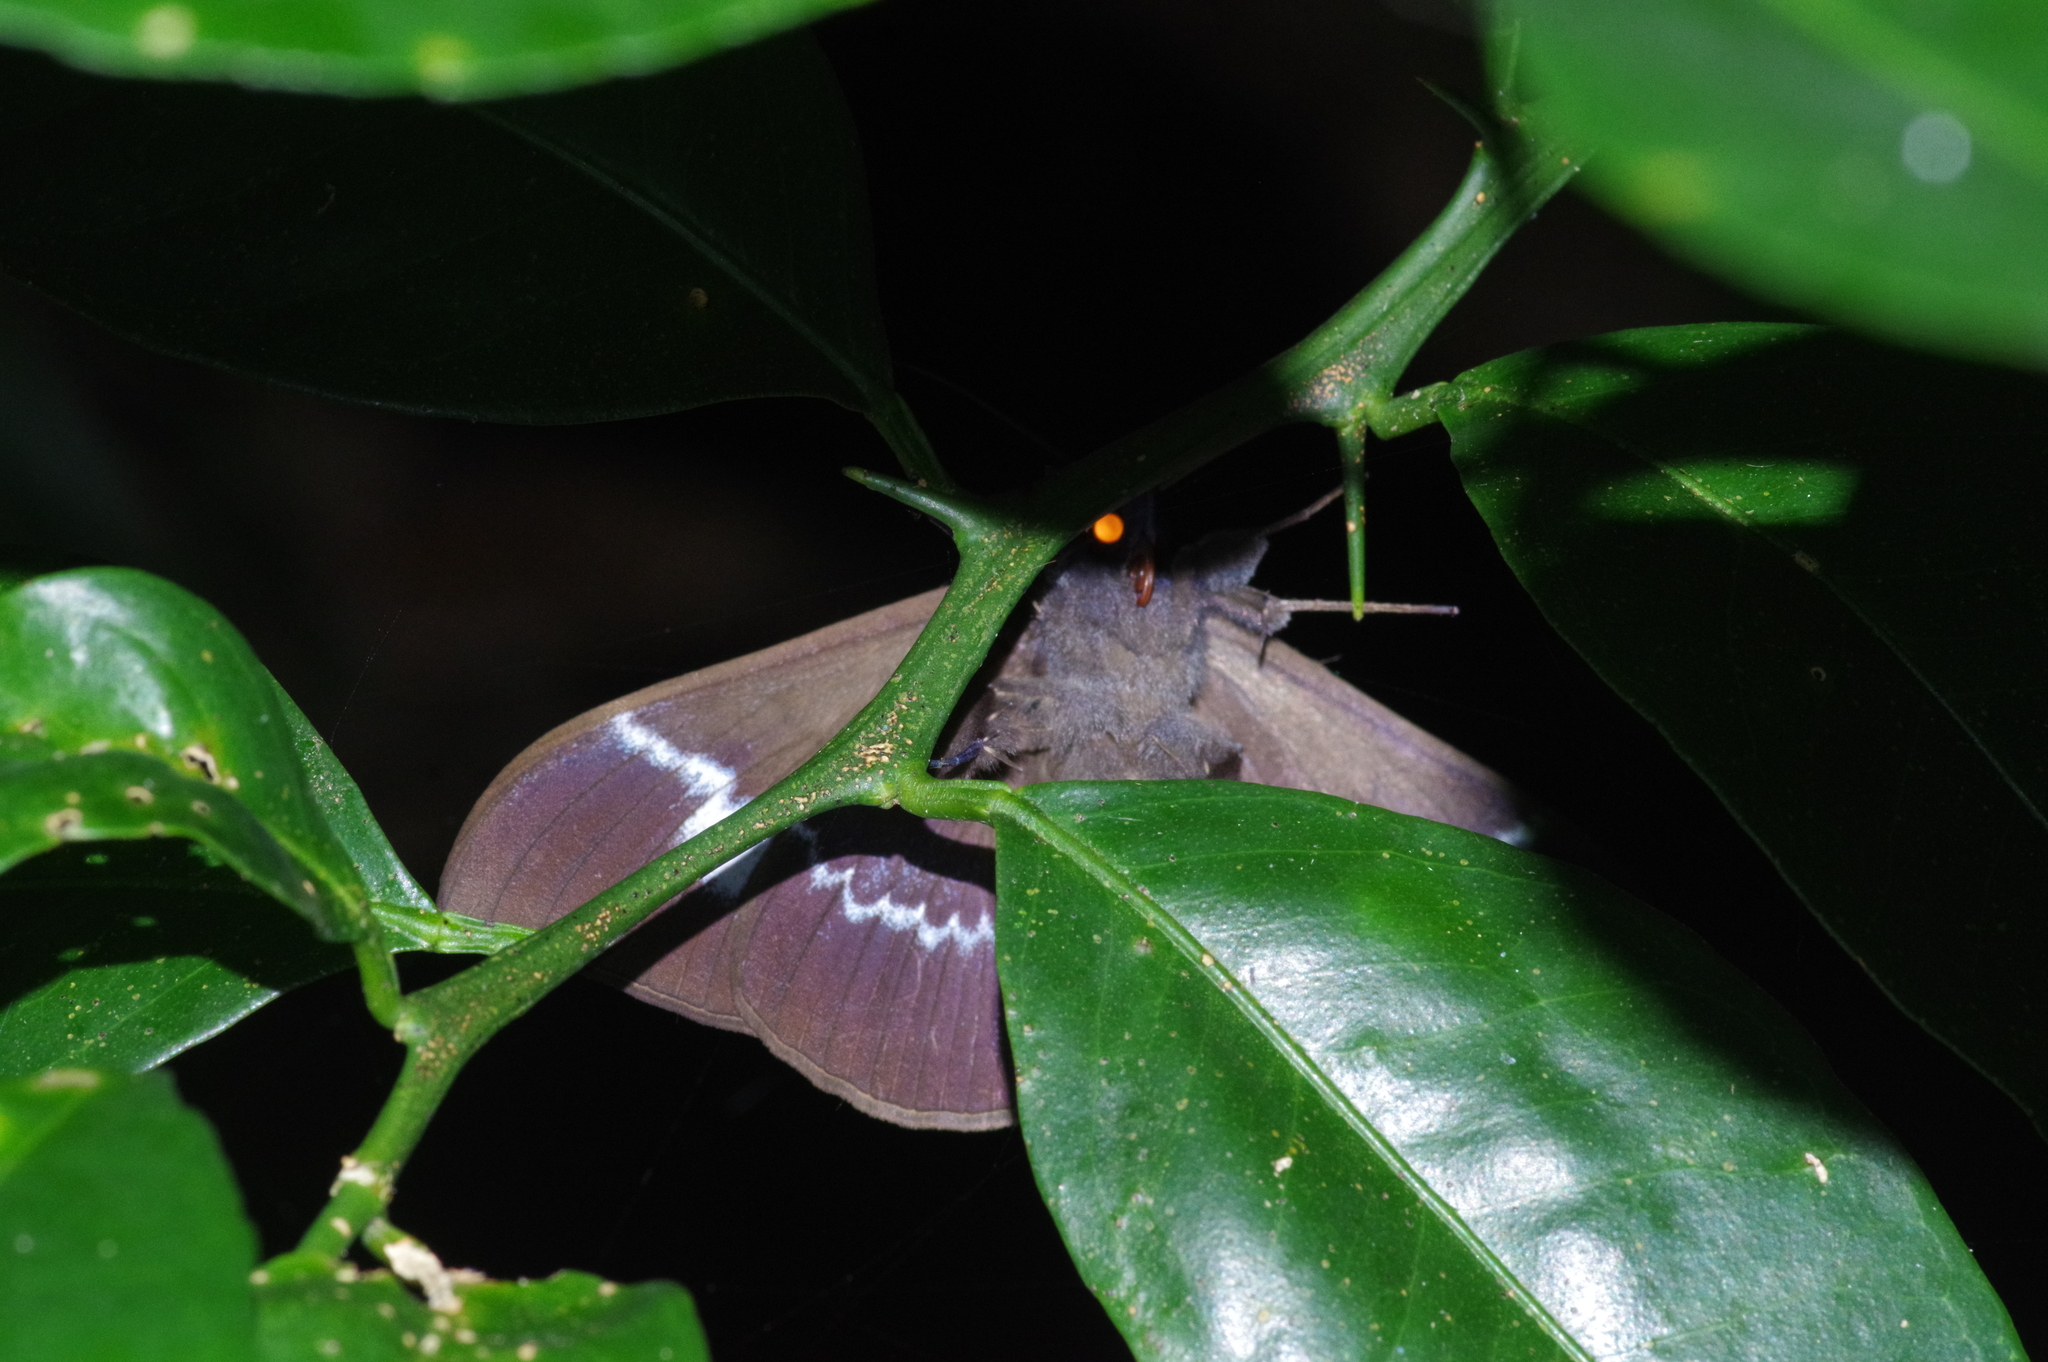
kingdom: Animalia
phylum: Arthropoda
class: Insecta
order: Lepidoptera
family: Erebidae
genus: Ischyja
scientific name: Ischyja ferrifracta
